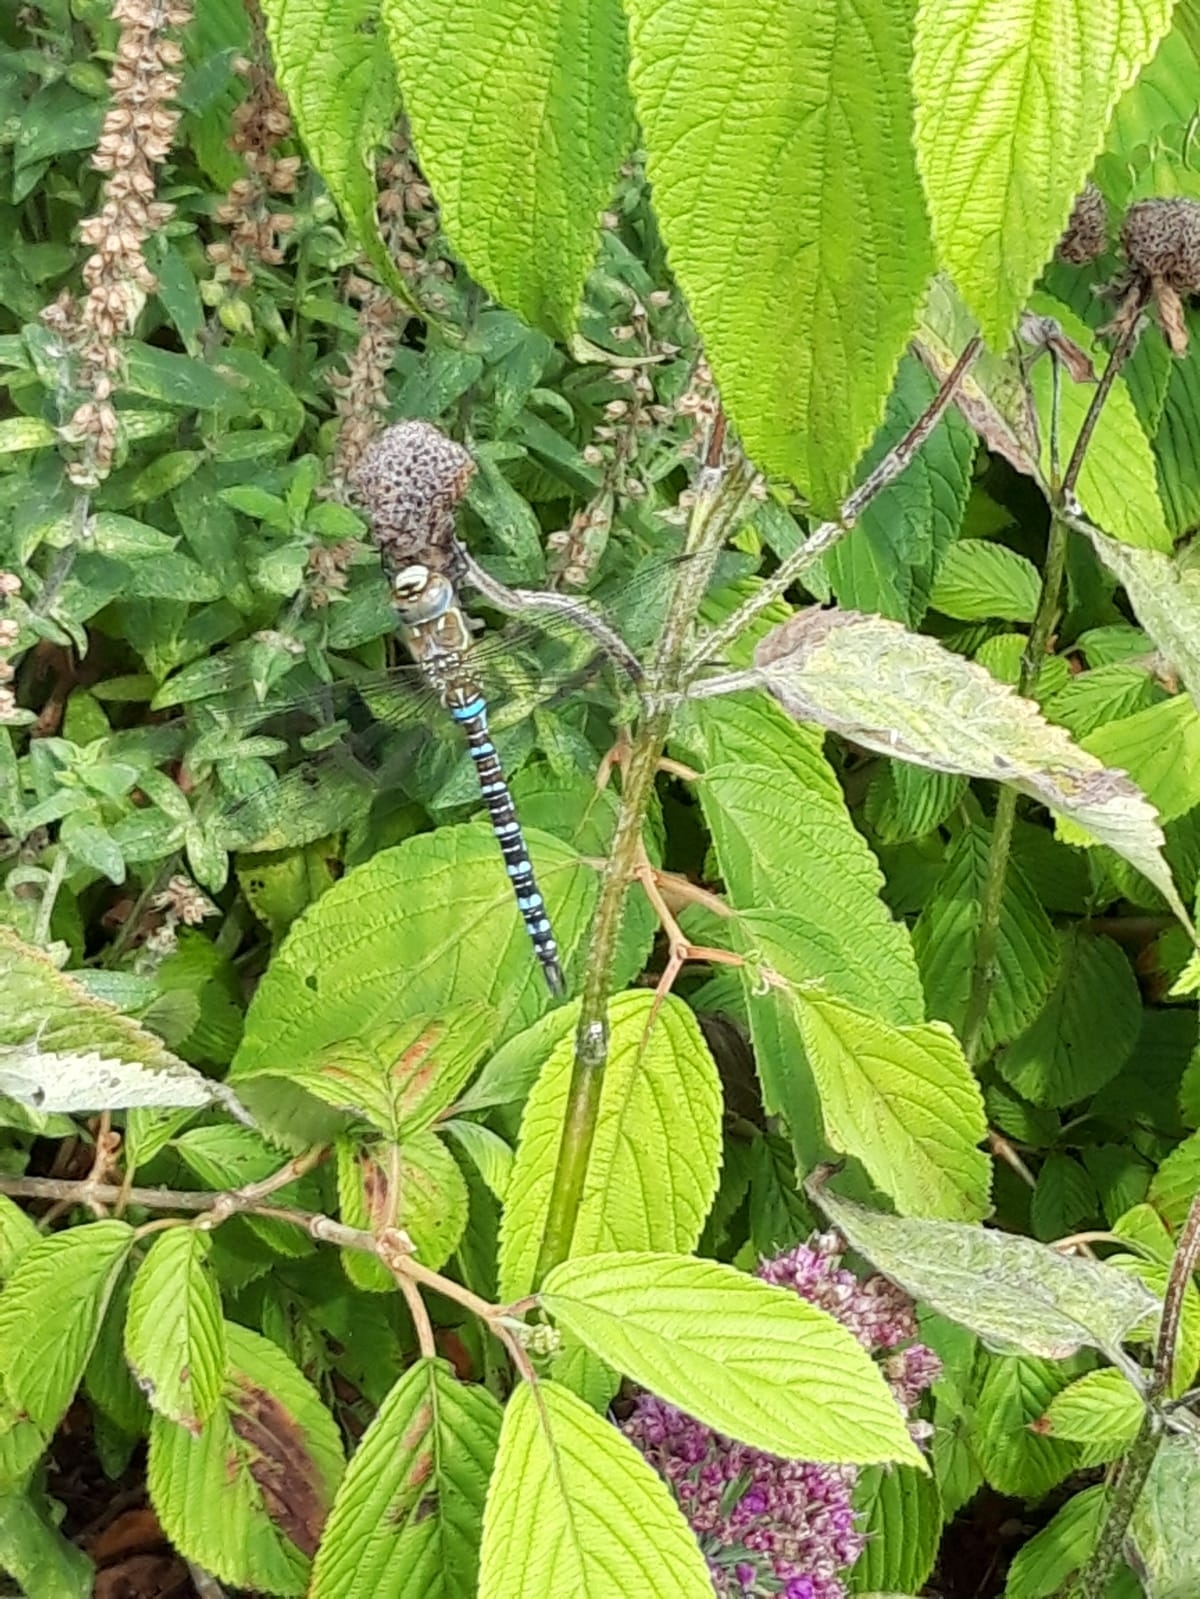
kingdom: Animalia
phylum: Arthropoda
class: Insecta
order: Odonata
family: Aeshnidae
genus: Aeshna
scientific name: Aeshna mixta
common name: Migrant hawker
